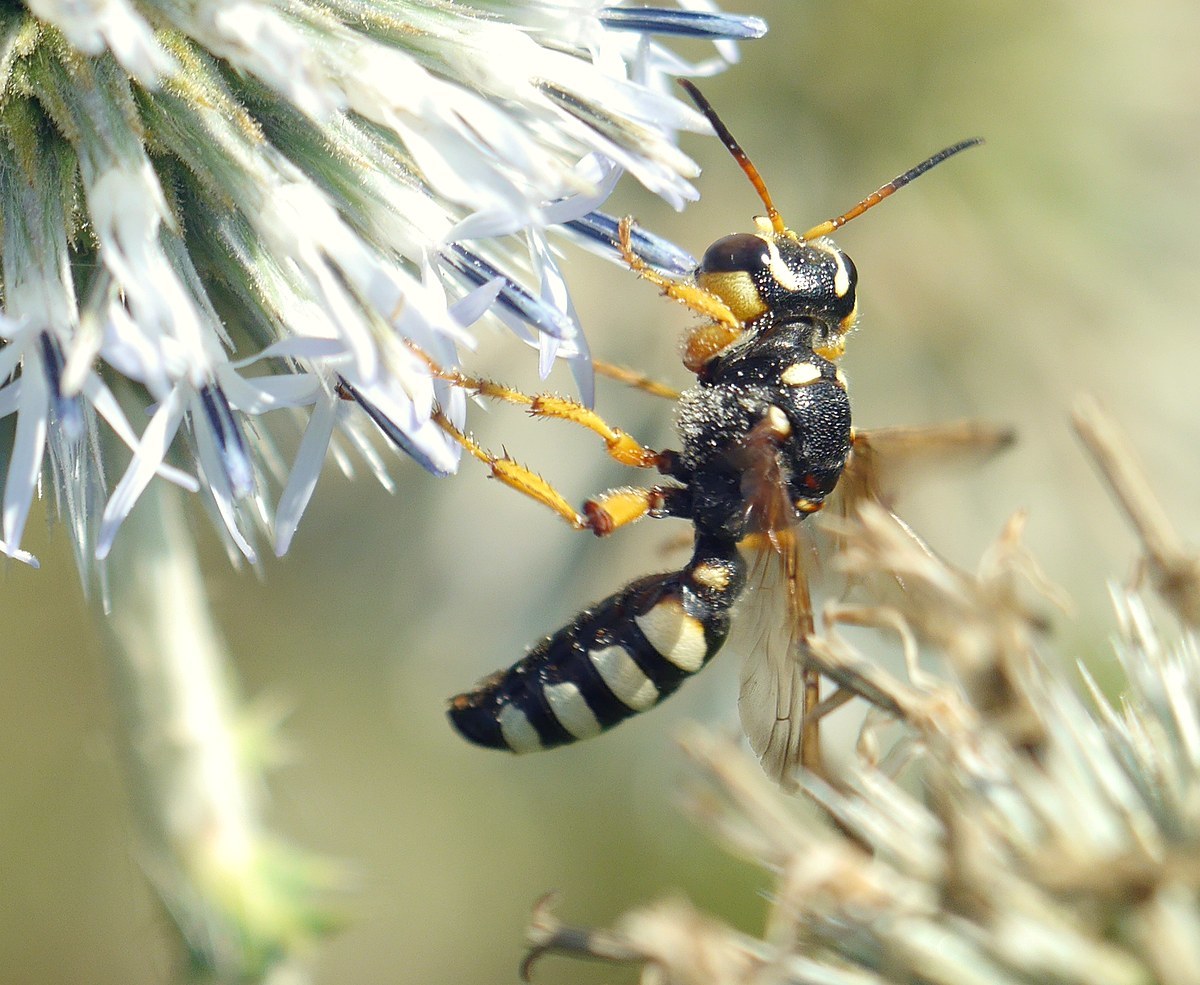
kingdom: Animalia
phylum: Arthropoda
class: Insecta
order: Hymenoptera
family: Crabronidae
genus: Cerceris
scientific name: Cerceris tuberculata
